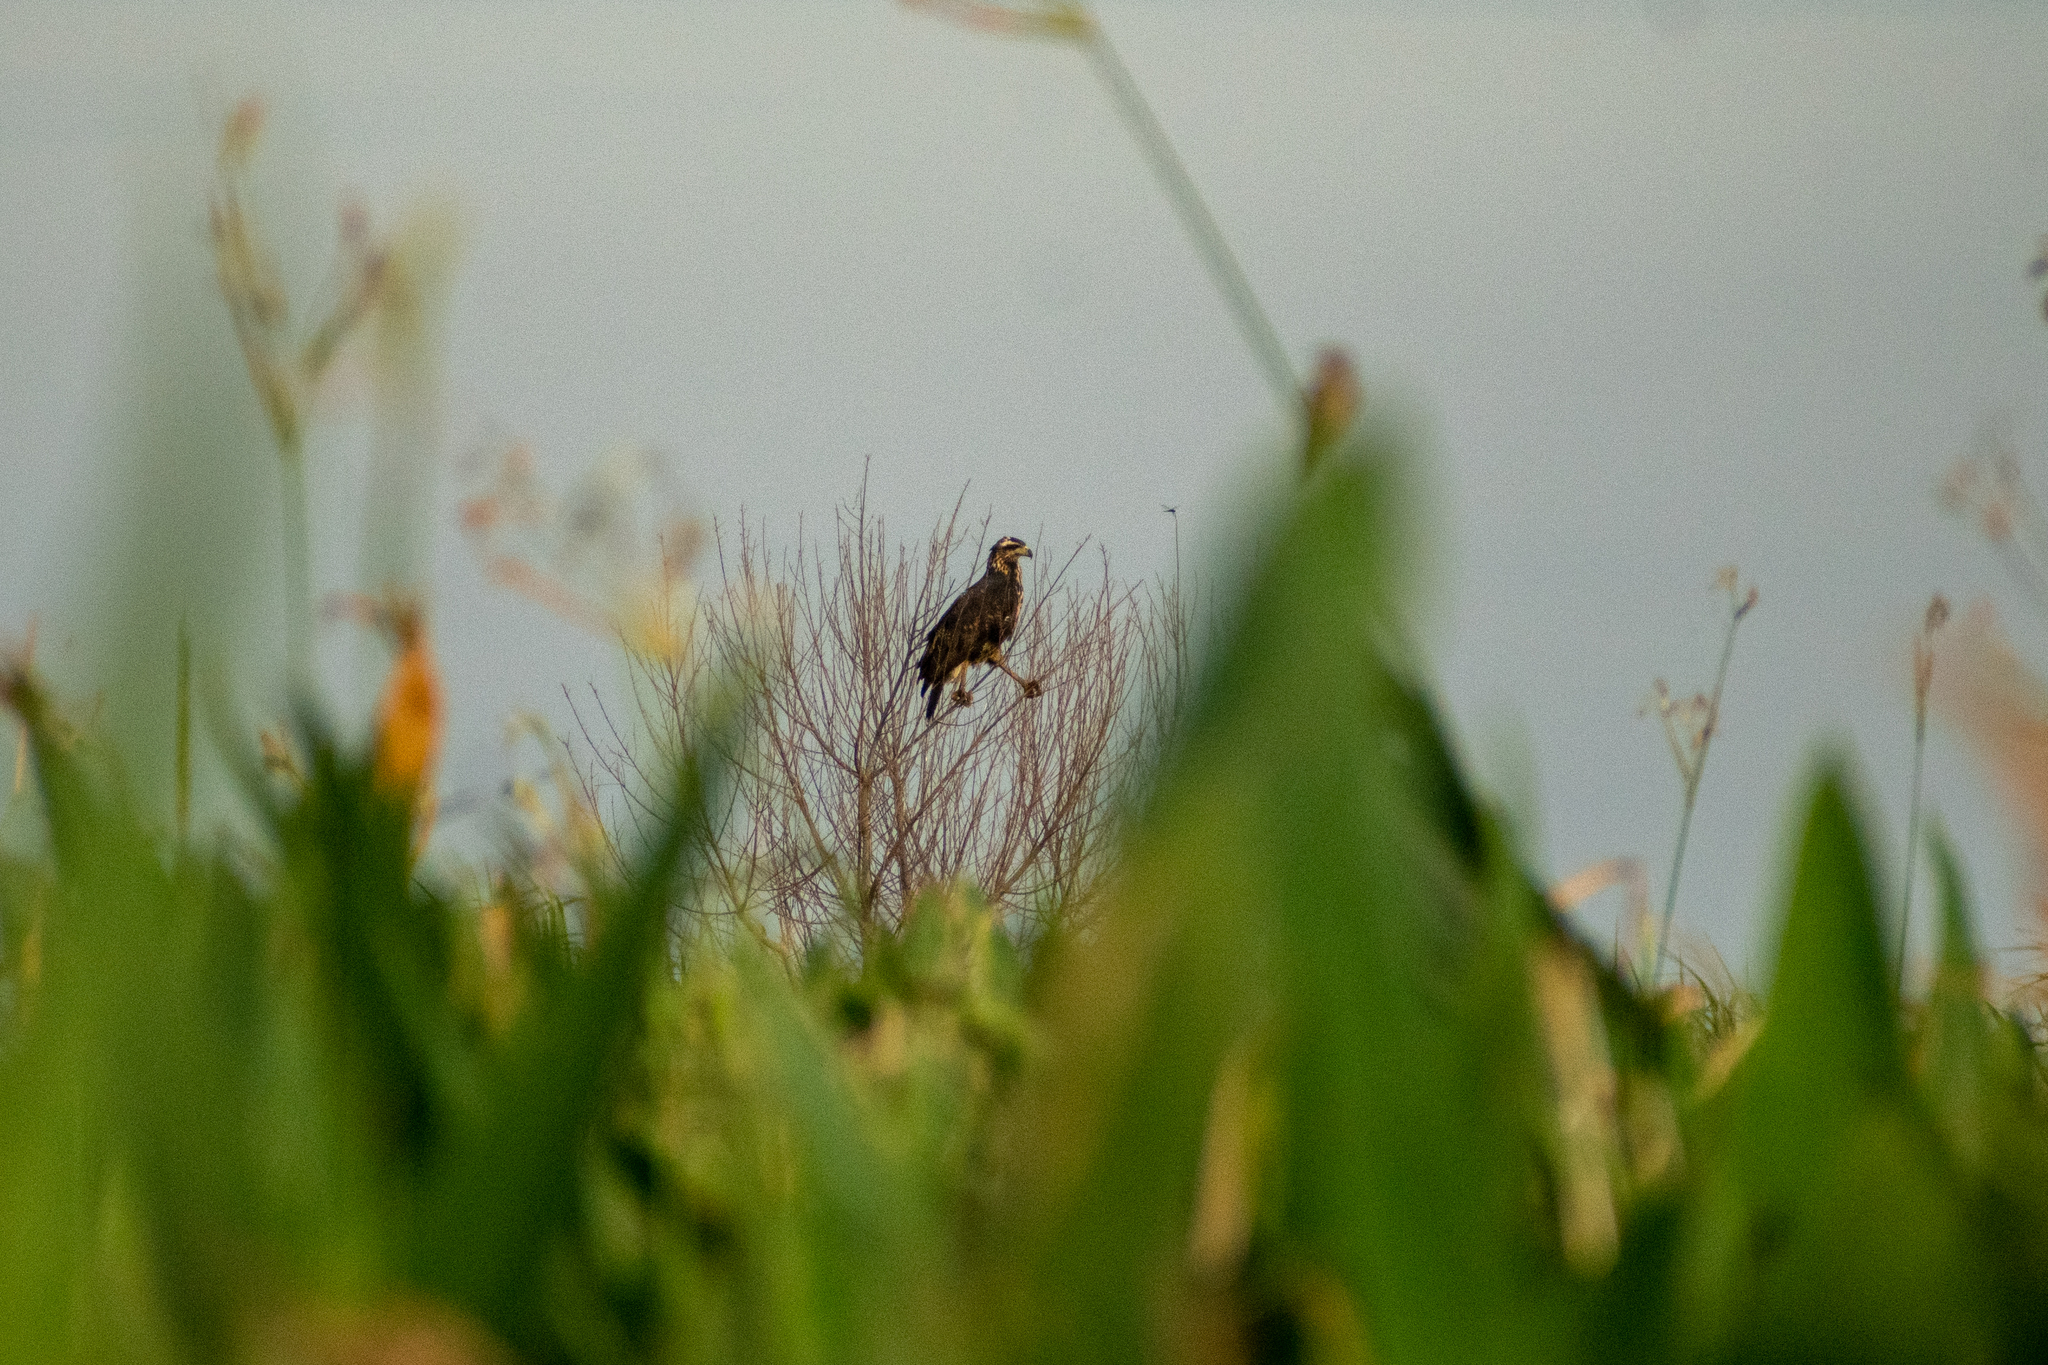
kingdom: Animalia
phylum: Chordata
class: Aves
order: Accipitriformes
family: Accipitridae
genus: Buteogallus
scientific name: Buteogallus urubitinga
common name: Great black hawk
